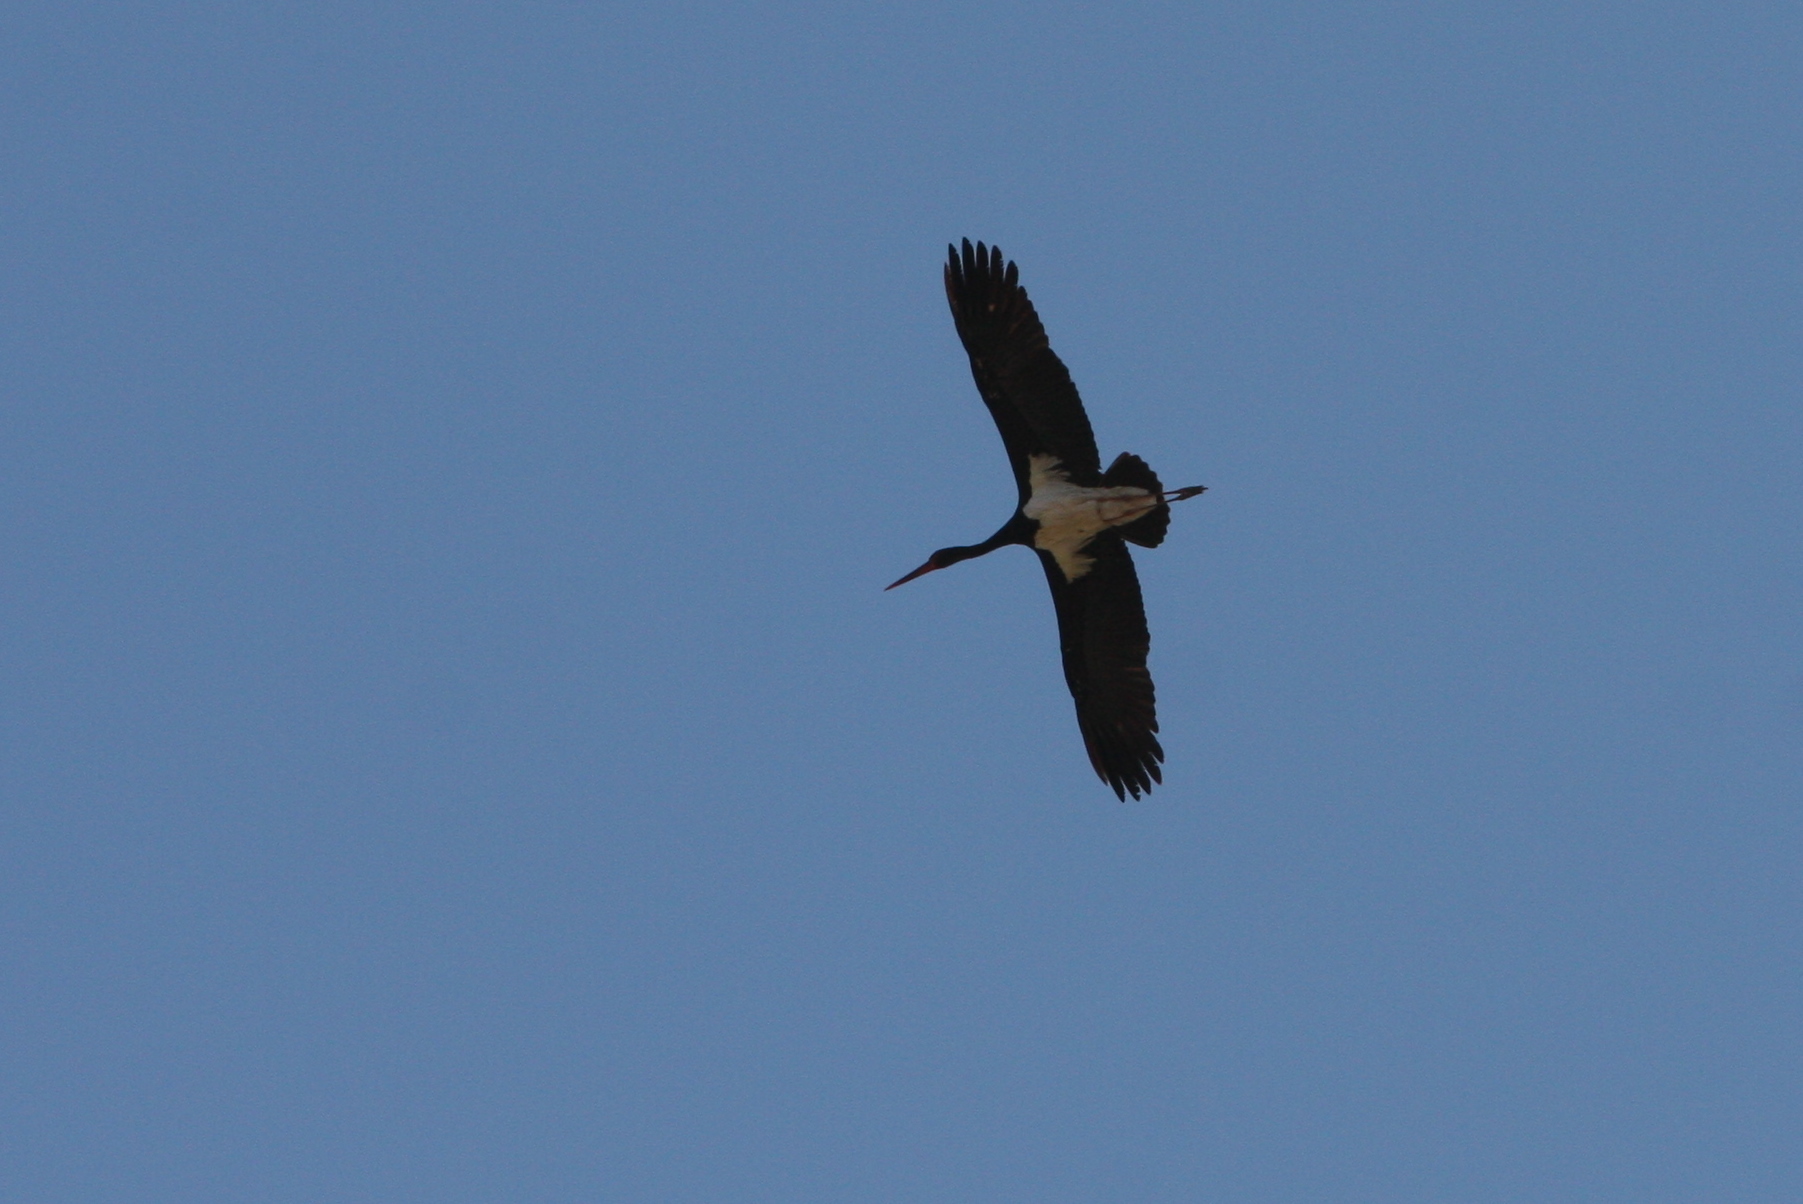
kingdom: Animalia
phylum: Chordata
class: Aves
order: Ciconiiformes
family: Ciconiidae
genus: Ciconia
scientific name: Ciconia nigra
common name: Black stork
